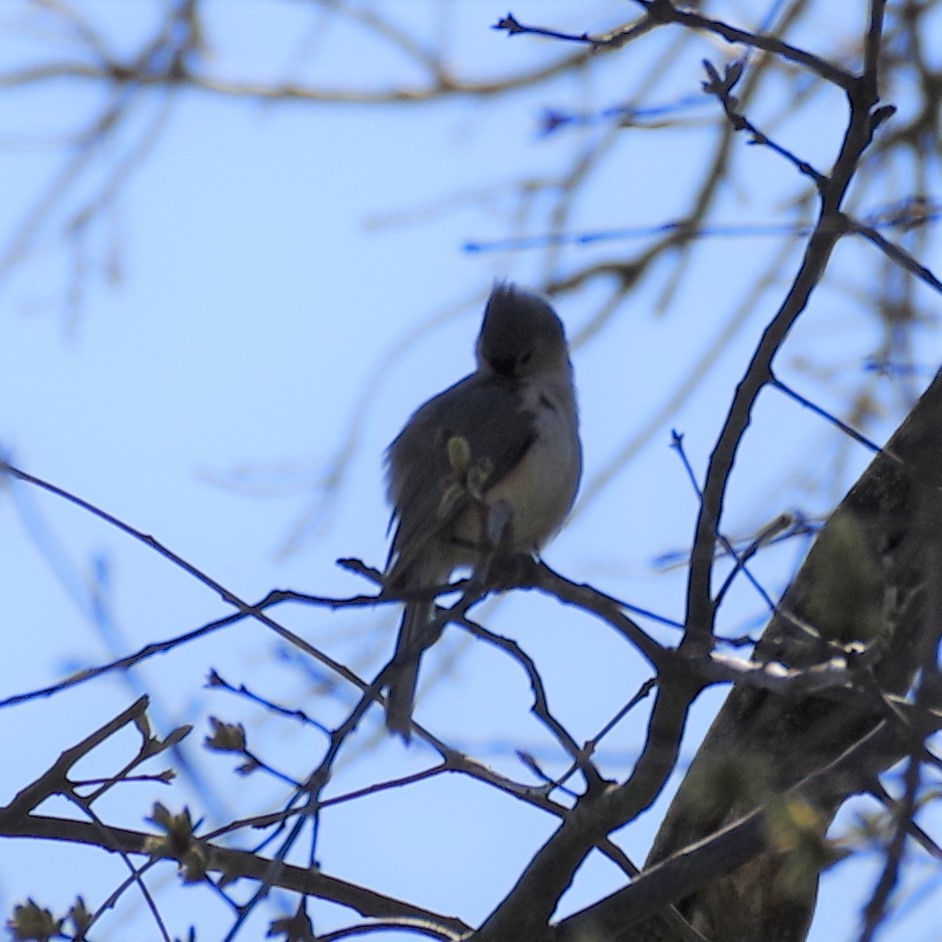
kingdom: Animalia
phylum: Chordata
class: Aves
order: Passeriformes
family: Paridae
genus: Baeolophus
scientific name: Baeolophus bicolor
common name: Tufted titmouse
